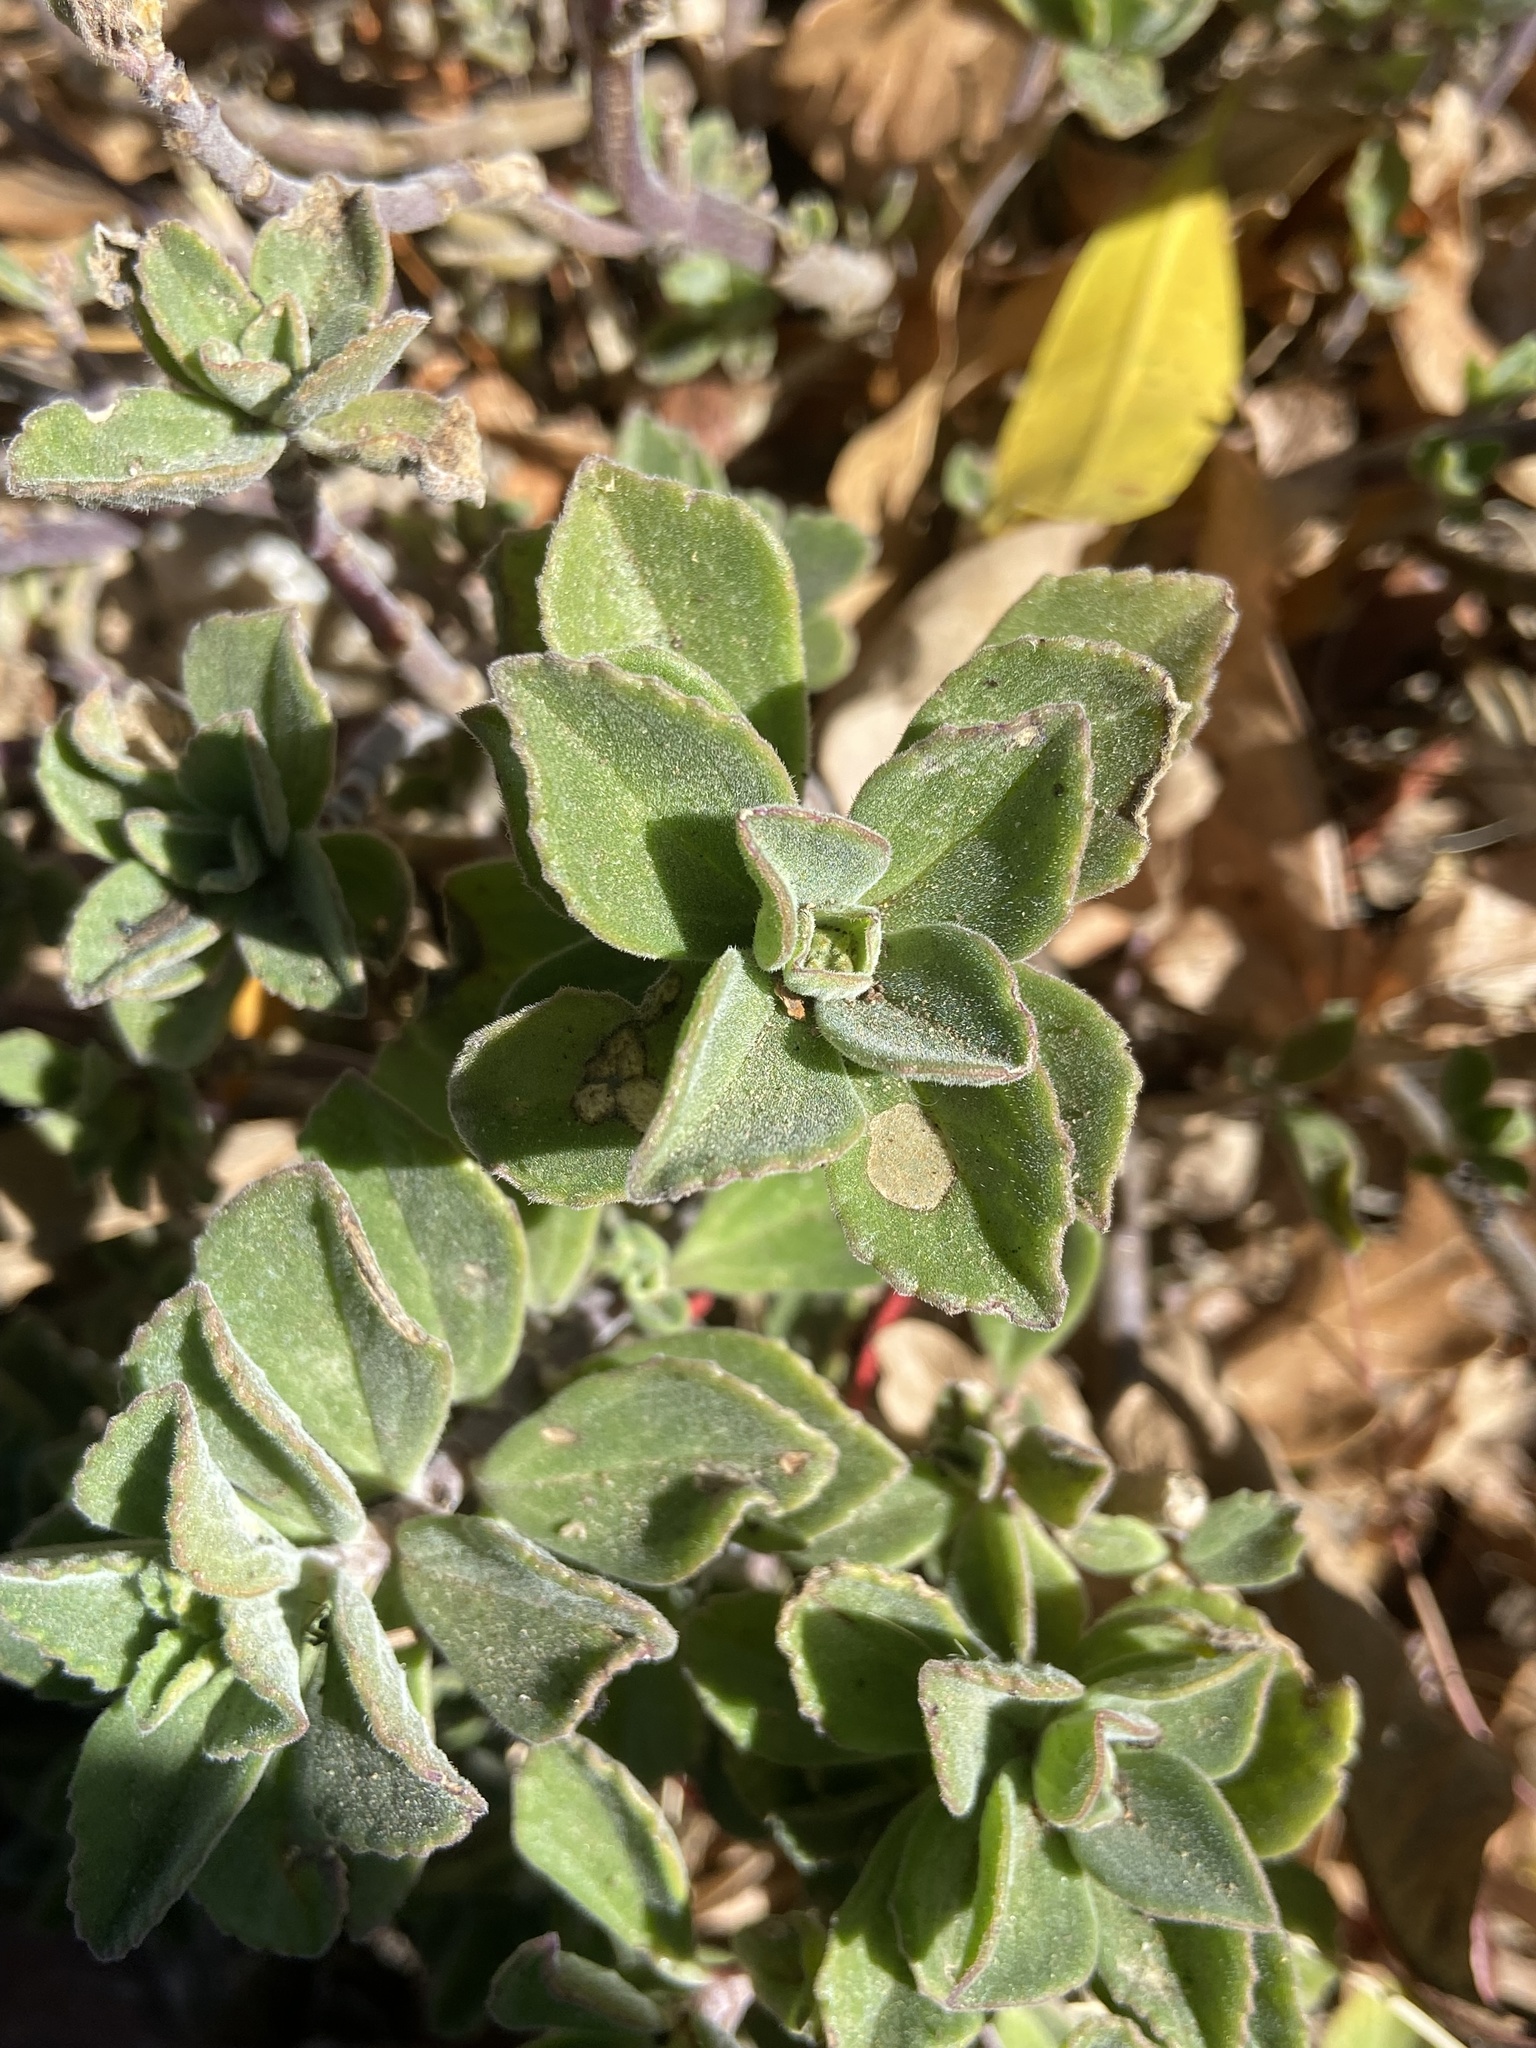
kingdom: Plantae
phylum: Tracheophyta
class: Magnoliopsida
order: Lamiales
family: Lamiaceae
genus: Coleus
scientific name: Coleus neochilus
